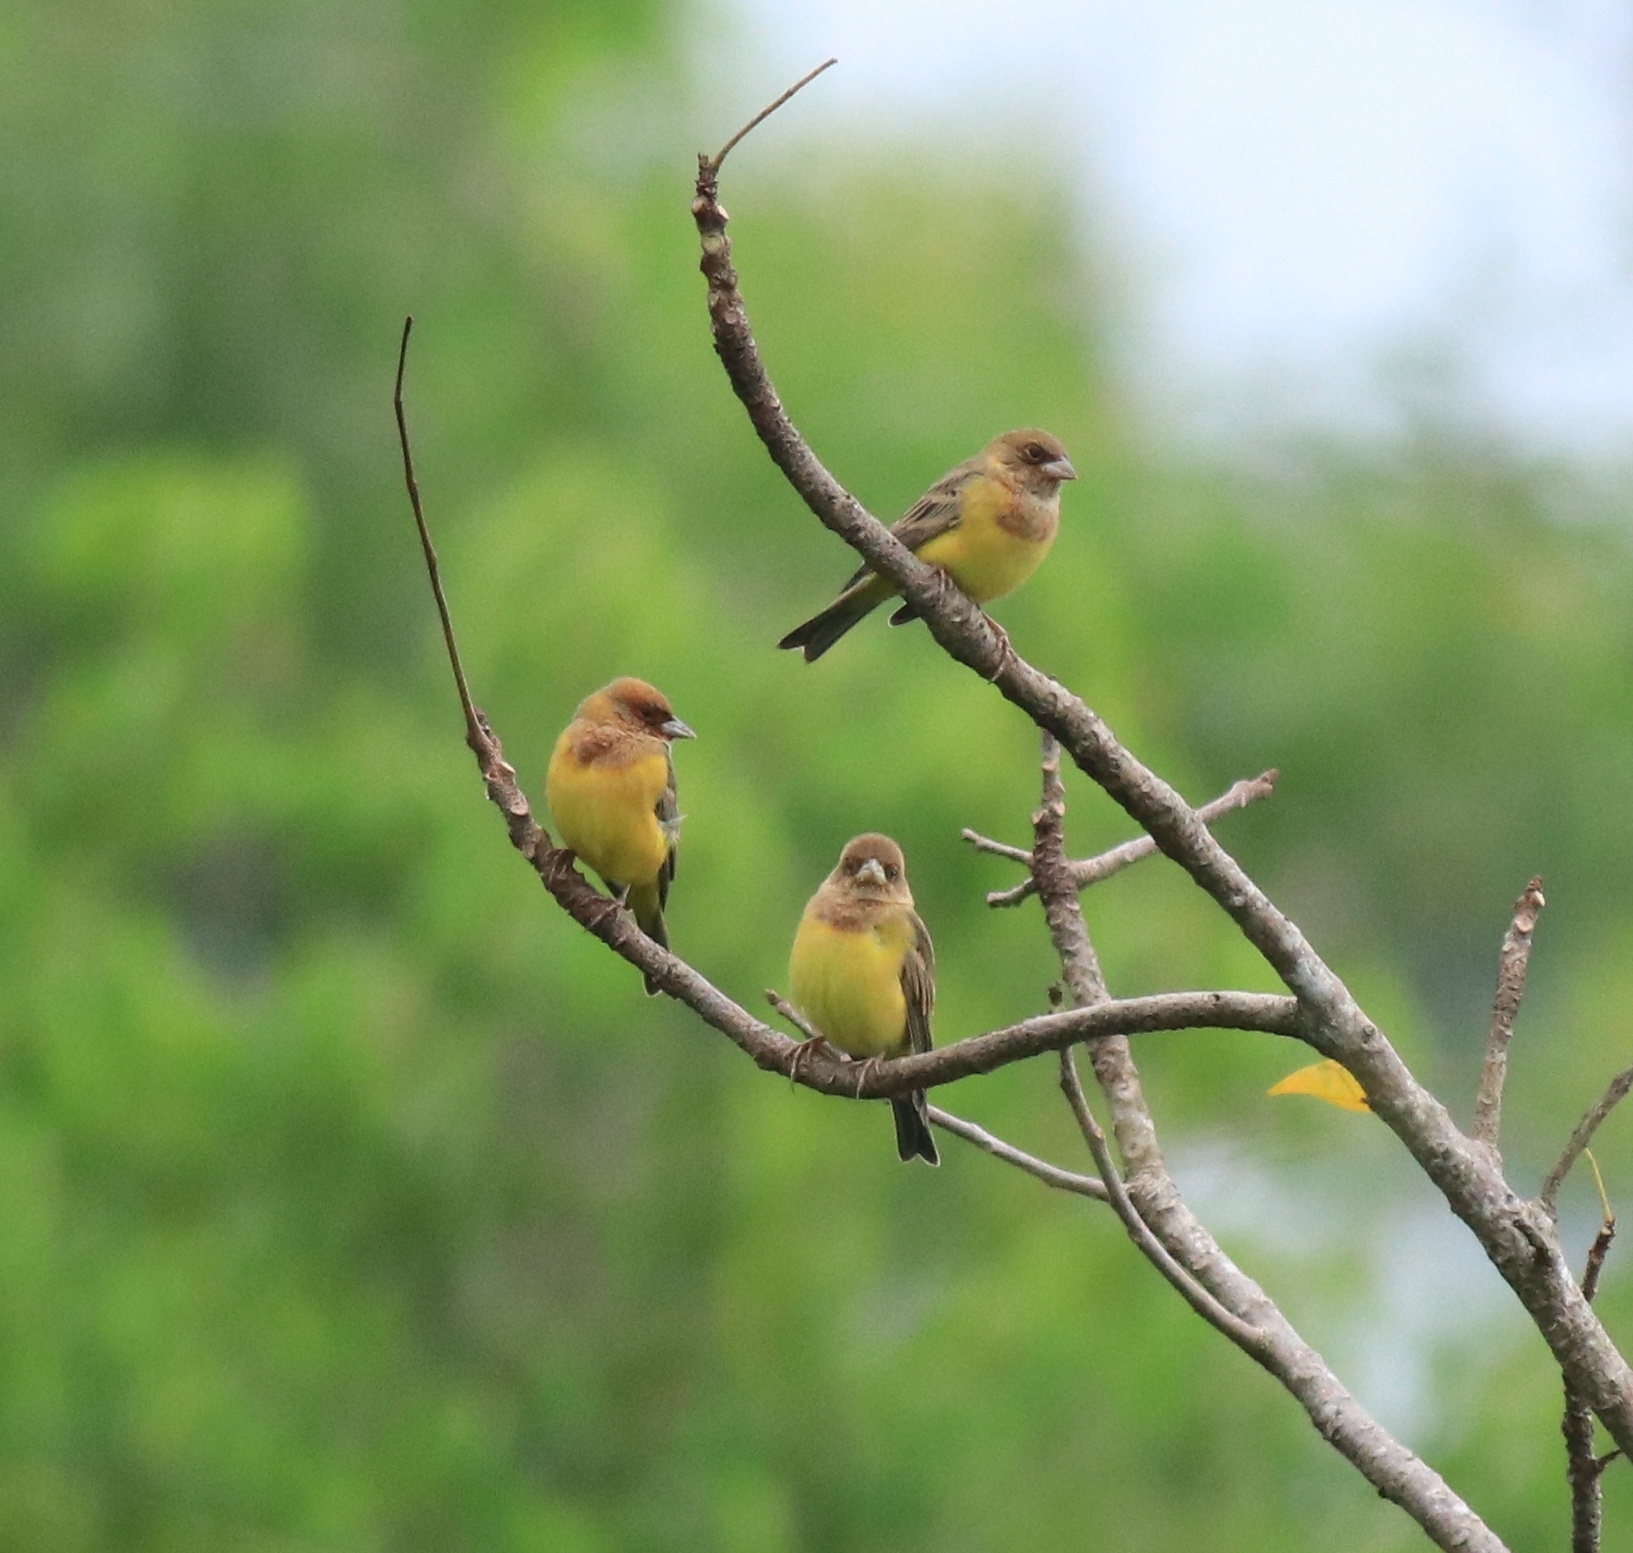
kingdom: Animalia
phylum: Chordata
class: Aves
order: Passeriformes
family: Emberizidae
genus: Emberiza
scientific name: Emberiza bruniceps
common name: Red-headed bunting
